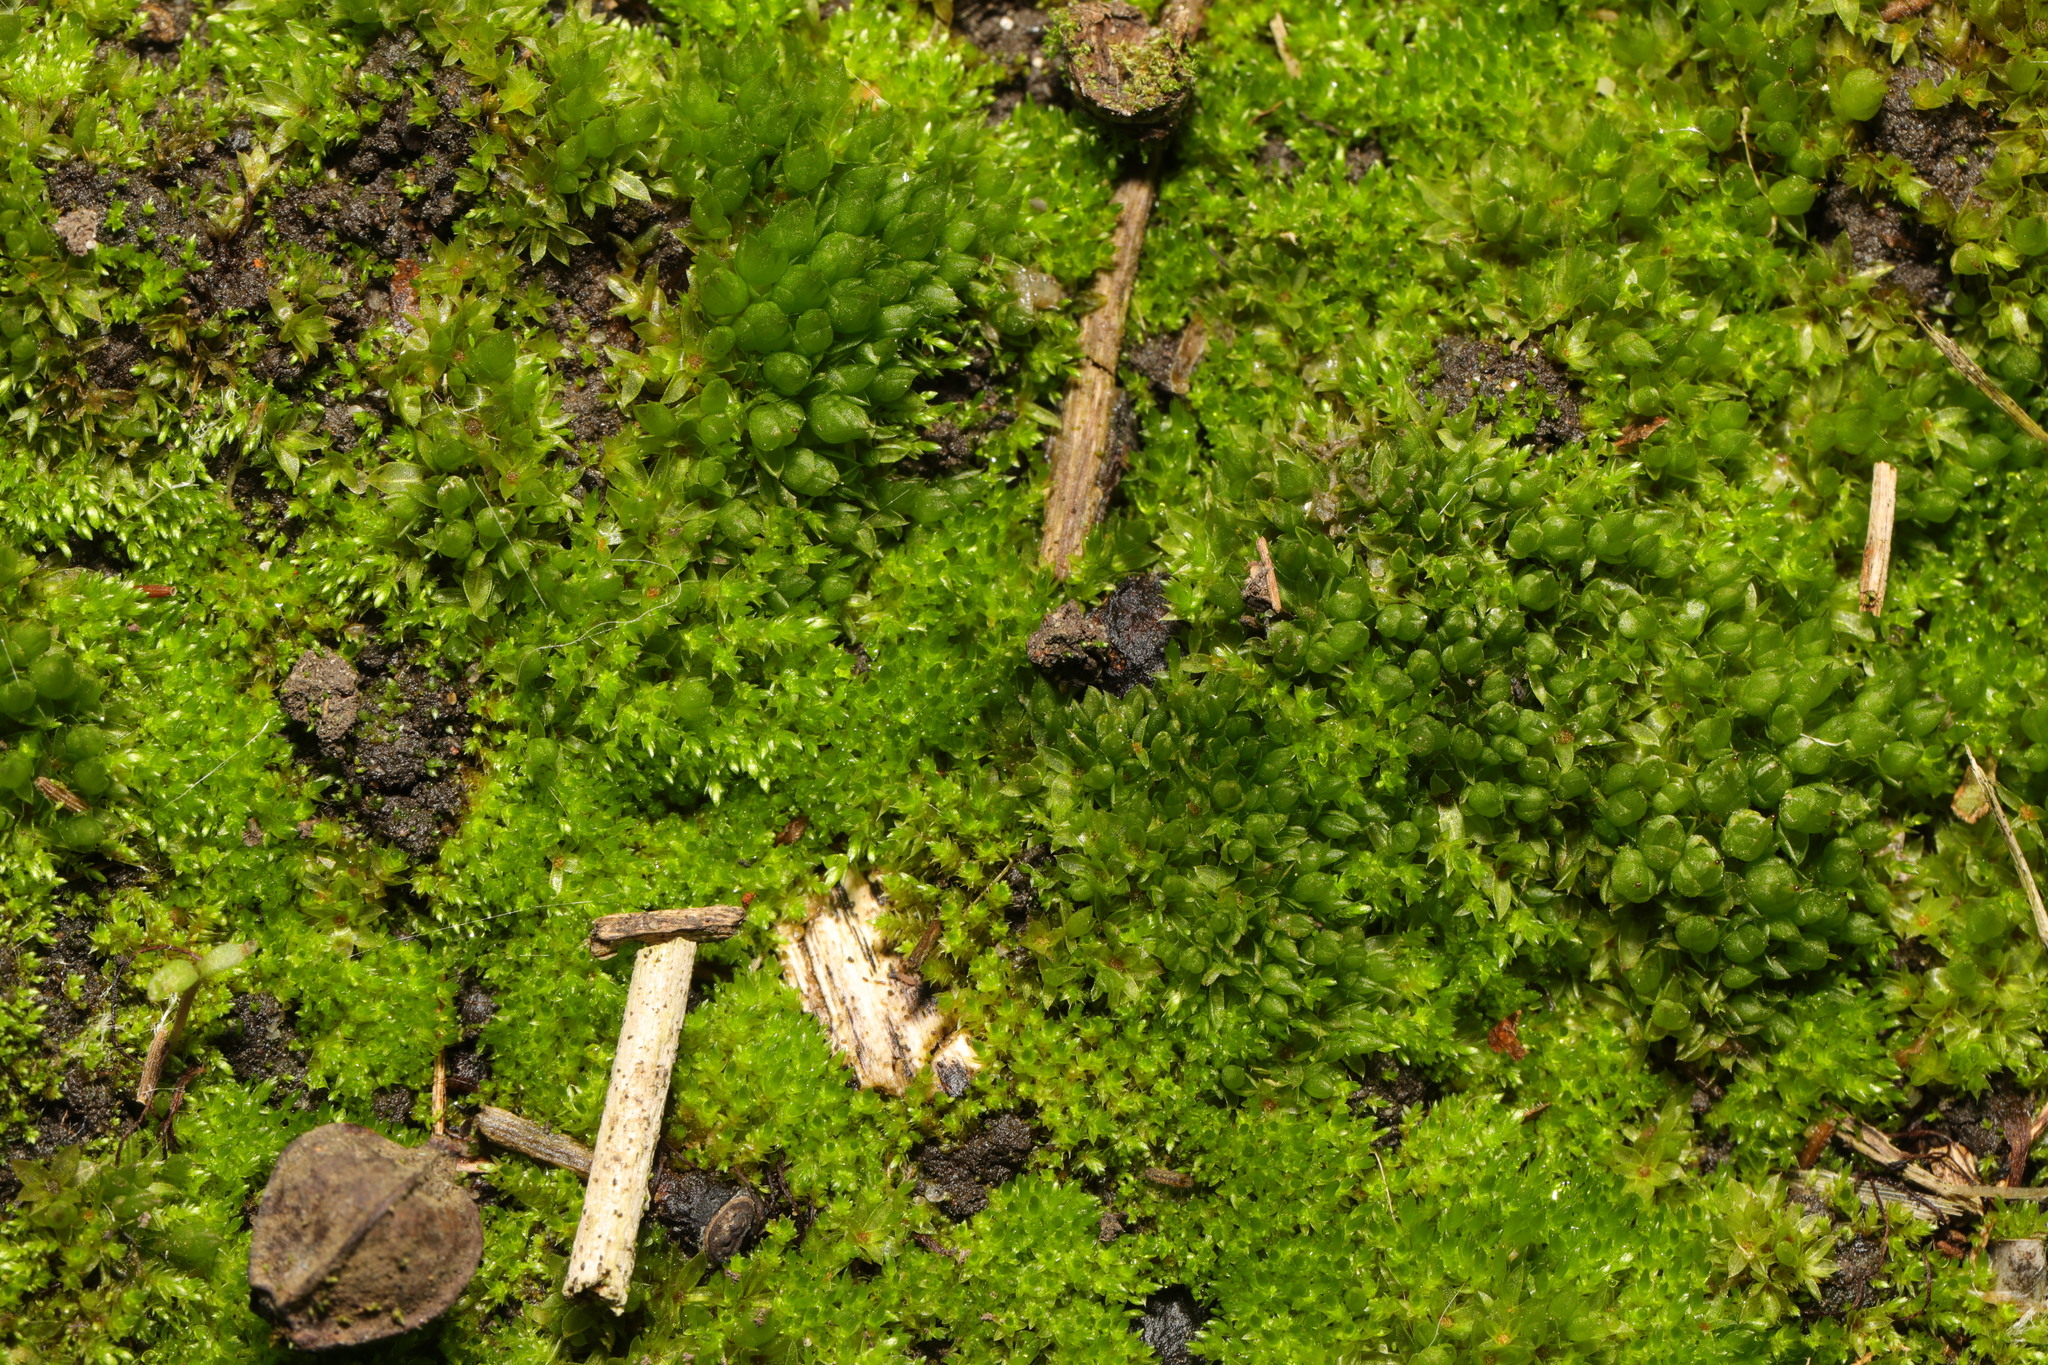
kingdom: Plantae
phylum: Bryophyta
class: Bryopsida
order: Funariales
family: Funariaceae
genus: Funaria
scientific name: Funaria hygrometrica
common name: Common cord moss
